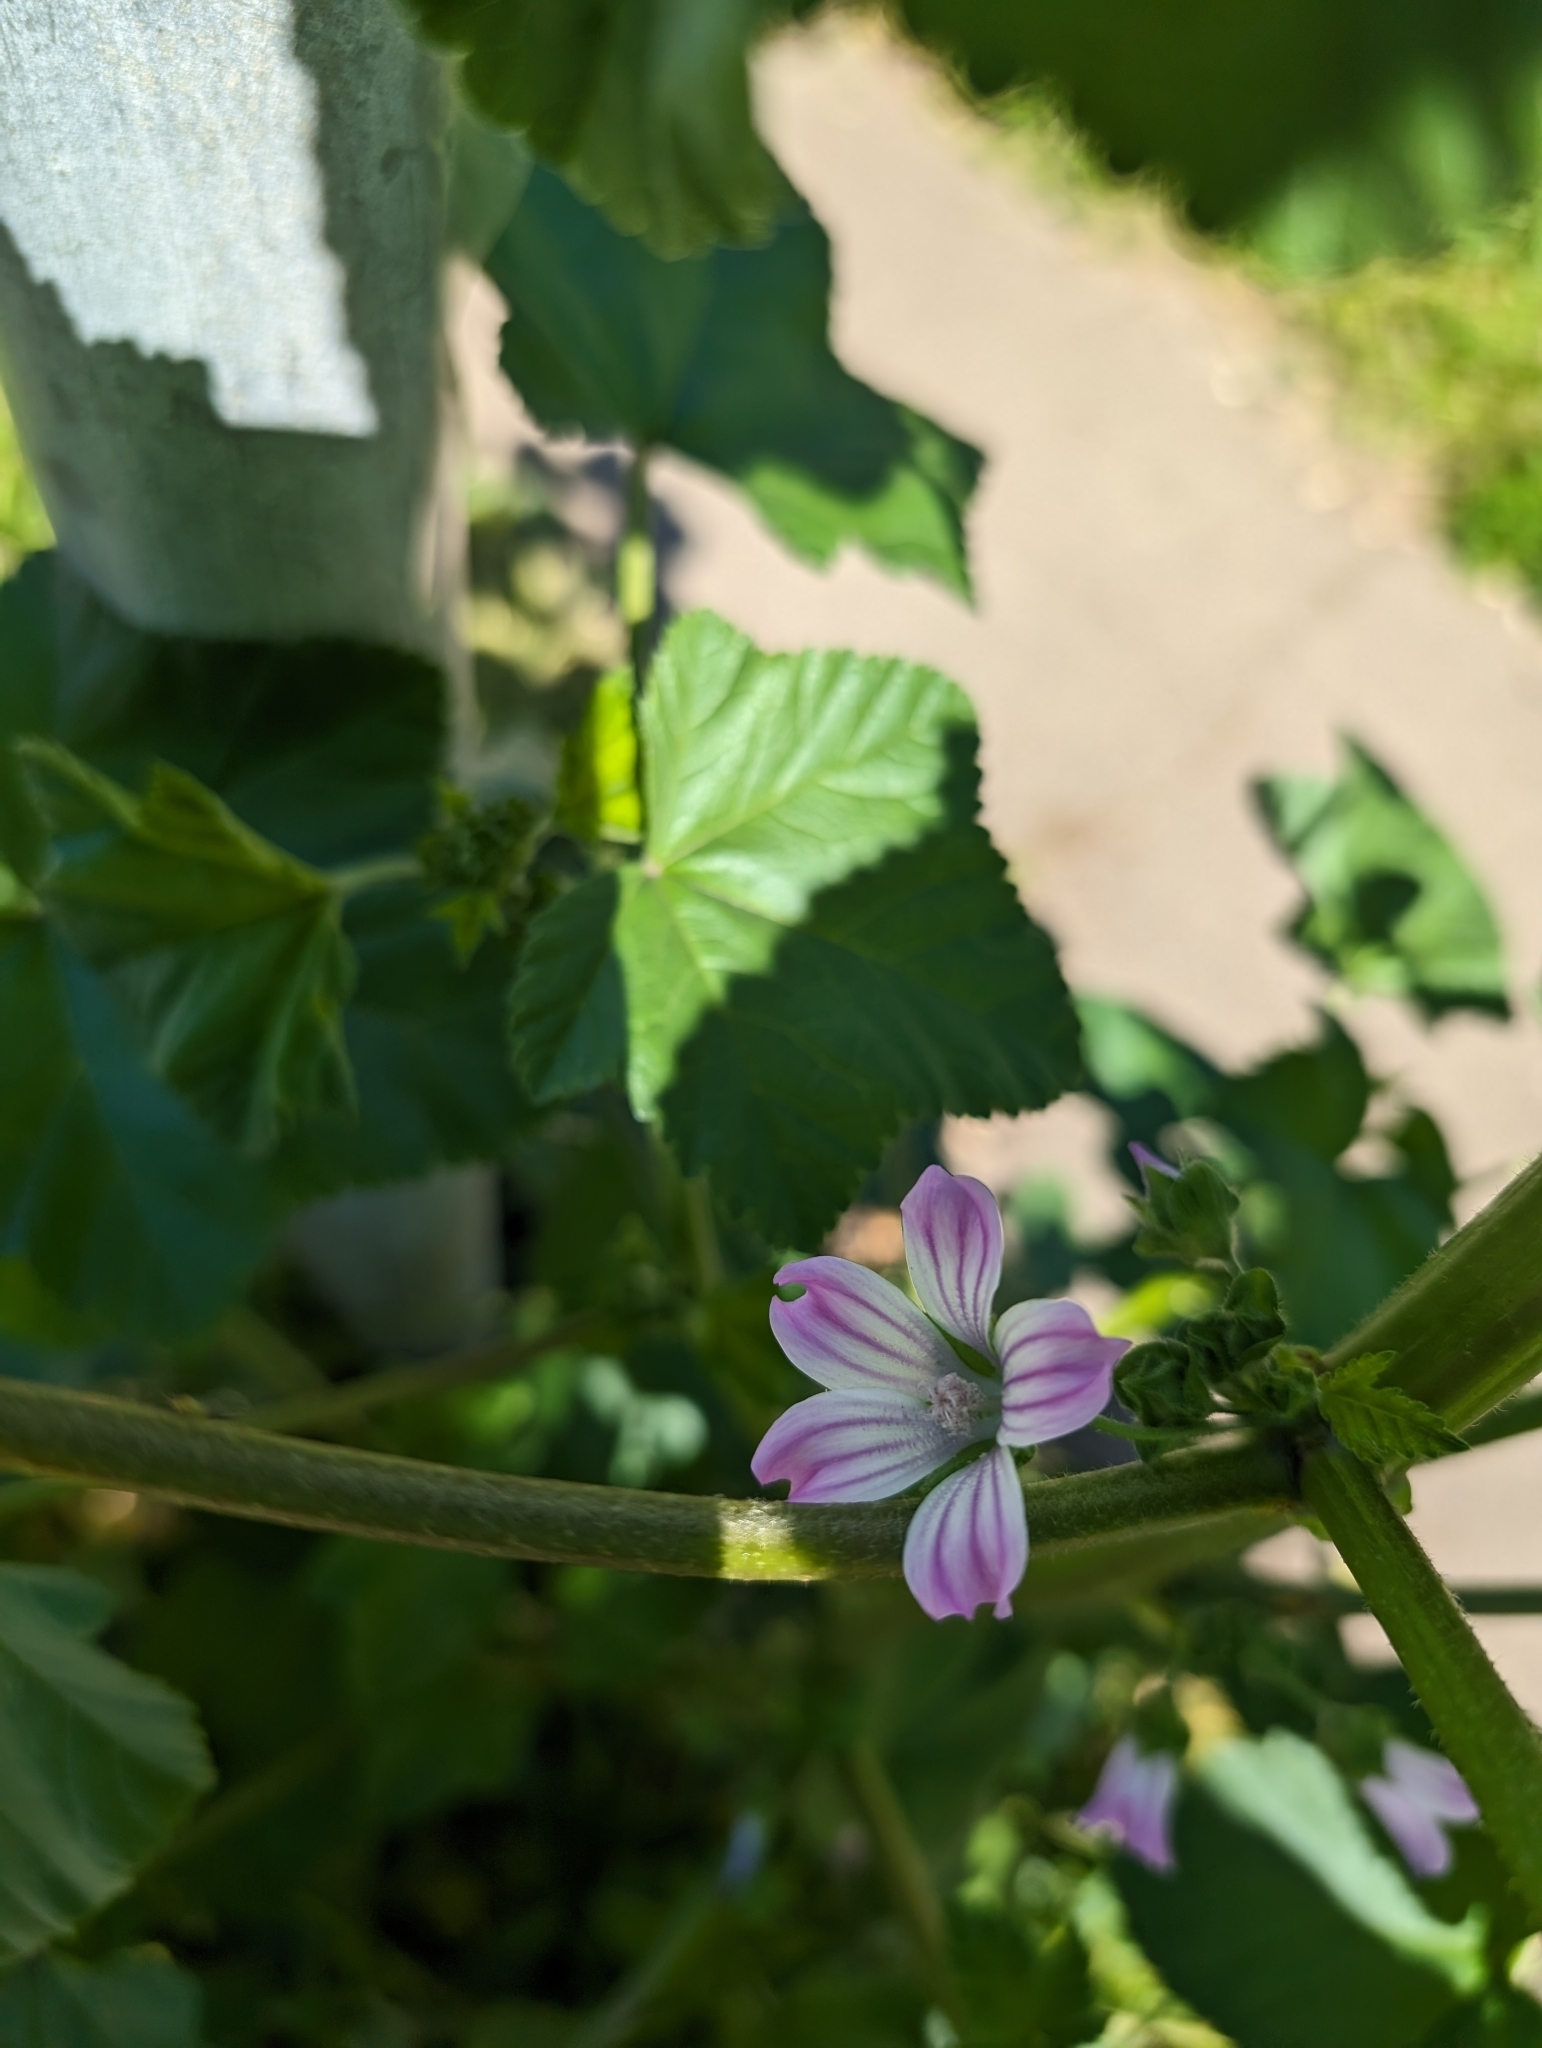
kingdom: Plantae
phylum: Tracheophyta
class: Magnoliopsida
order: Malvales
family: Malvaceae
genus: Malva
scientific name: Malva multiflora
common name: Cheeseweed
